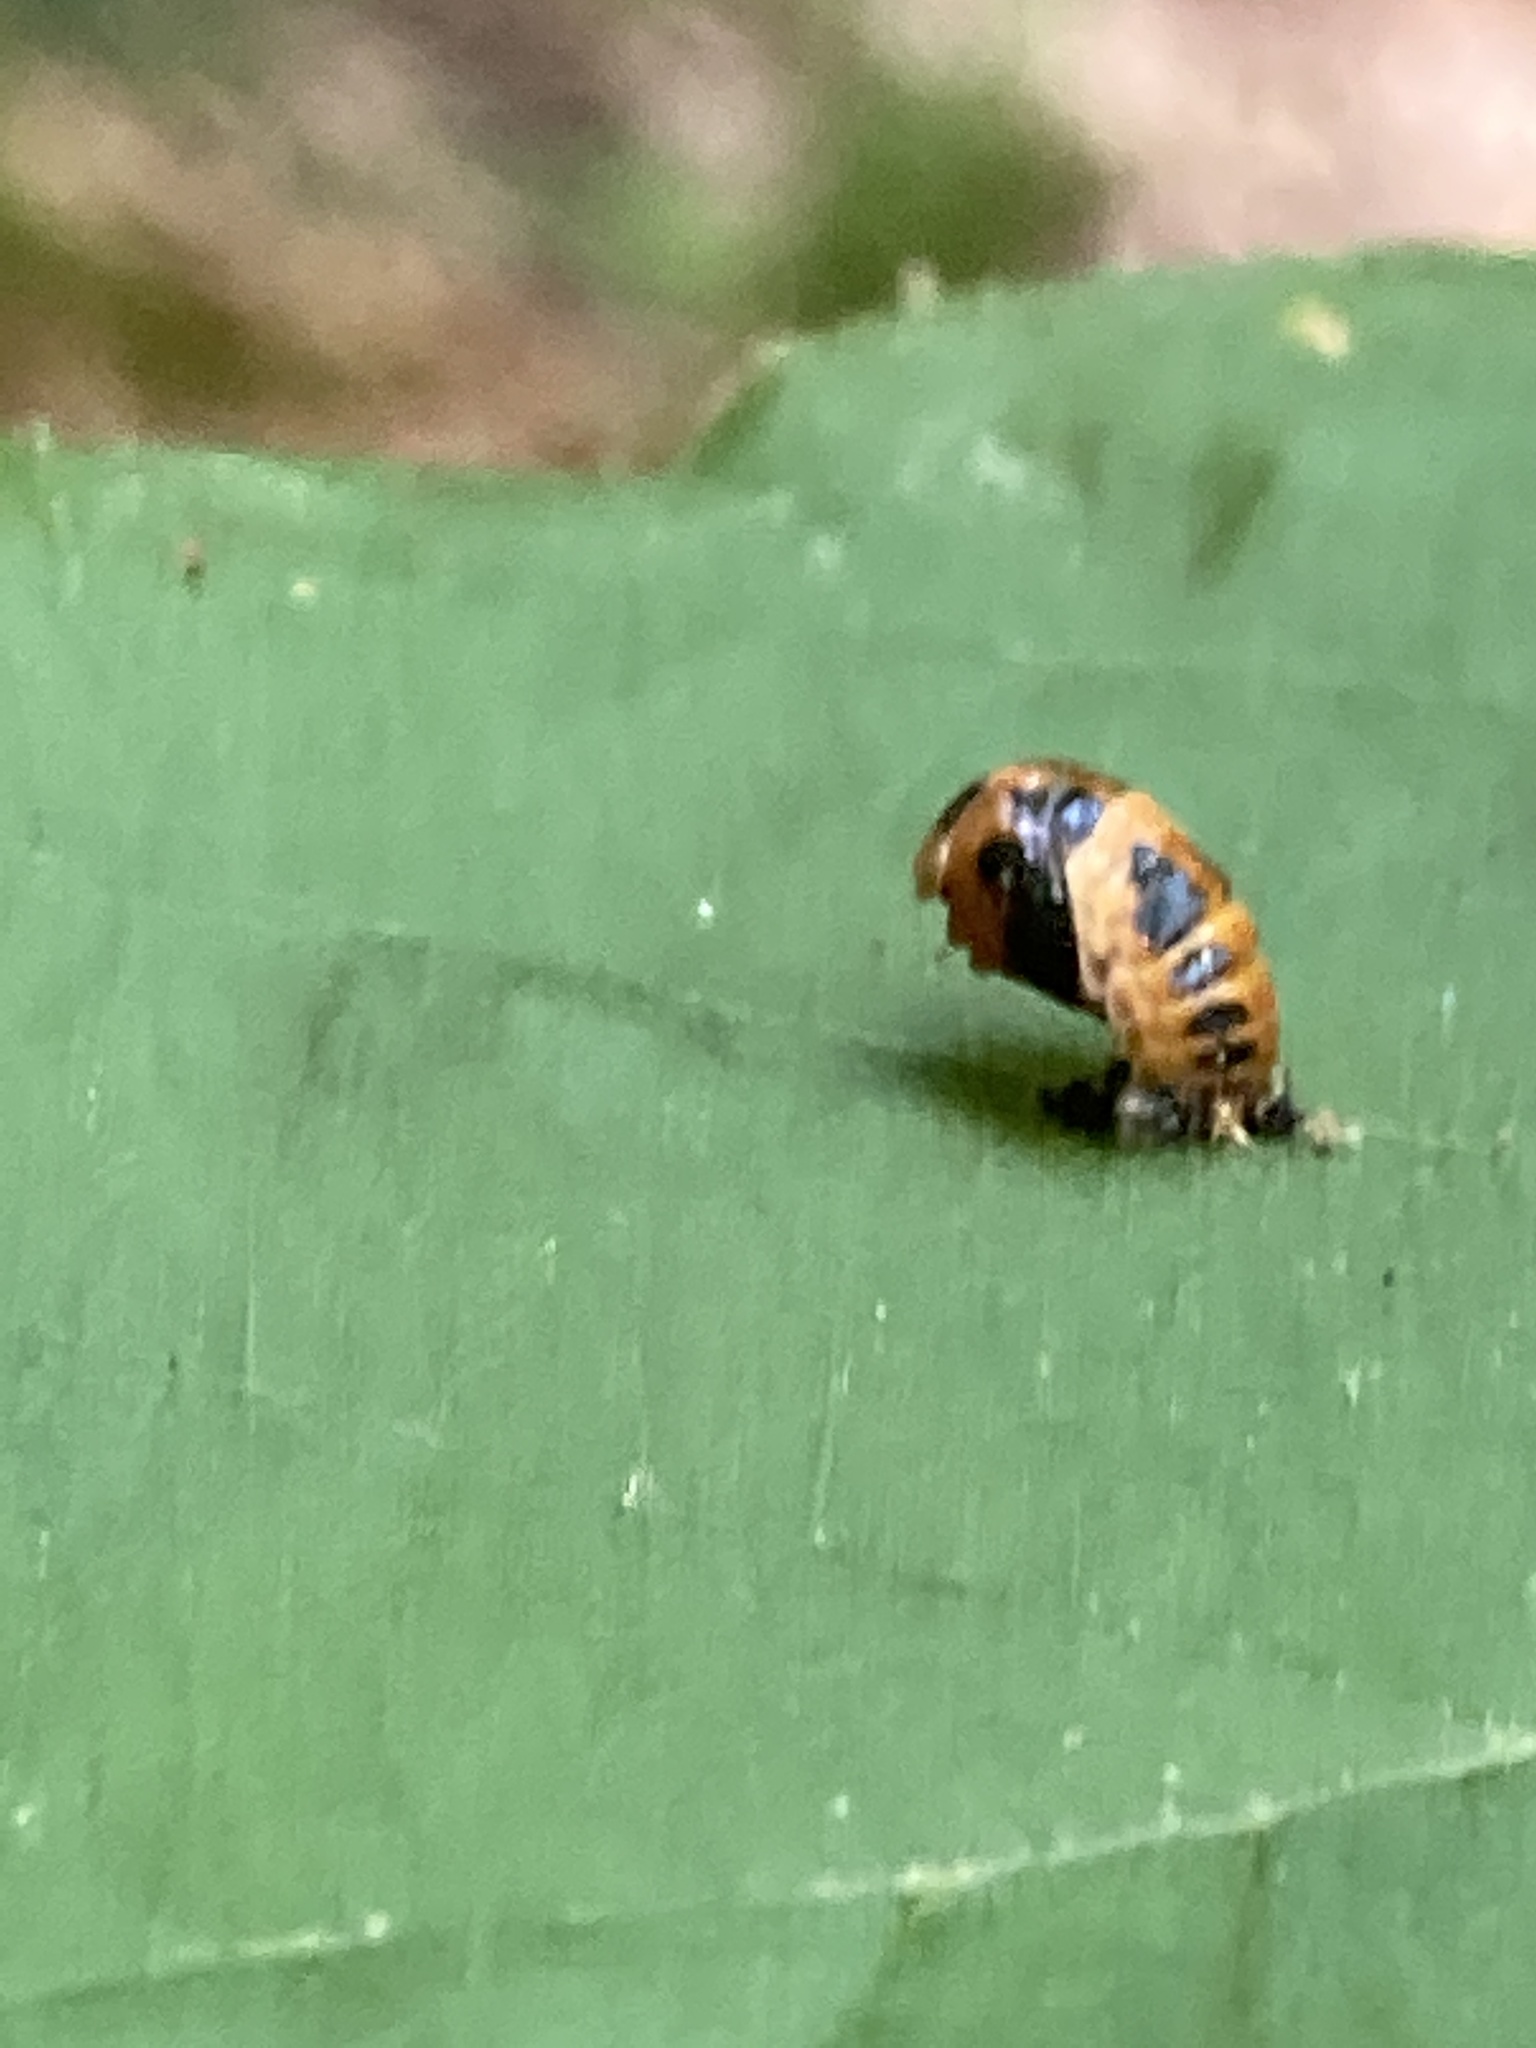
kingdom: Animalia
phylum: Arthropoda
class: Insecta
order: Coleoptera
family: Coccinellidae
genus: Harmonia
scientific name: Harmonia axyridis
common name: Harlequin ladybird
